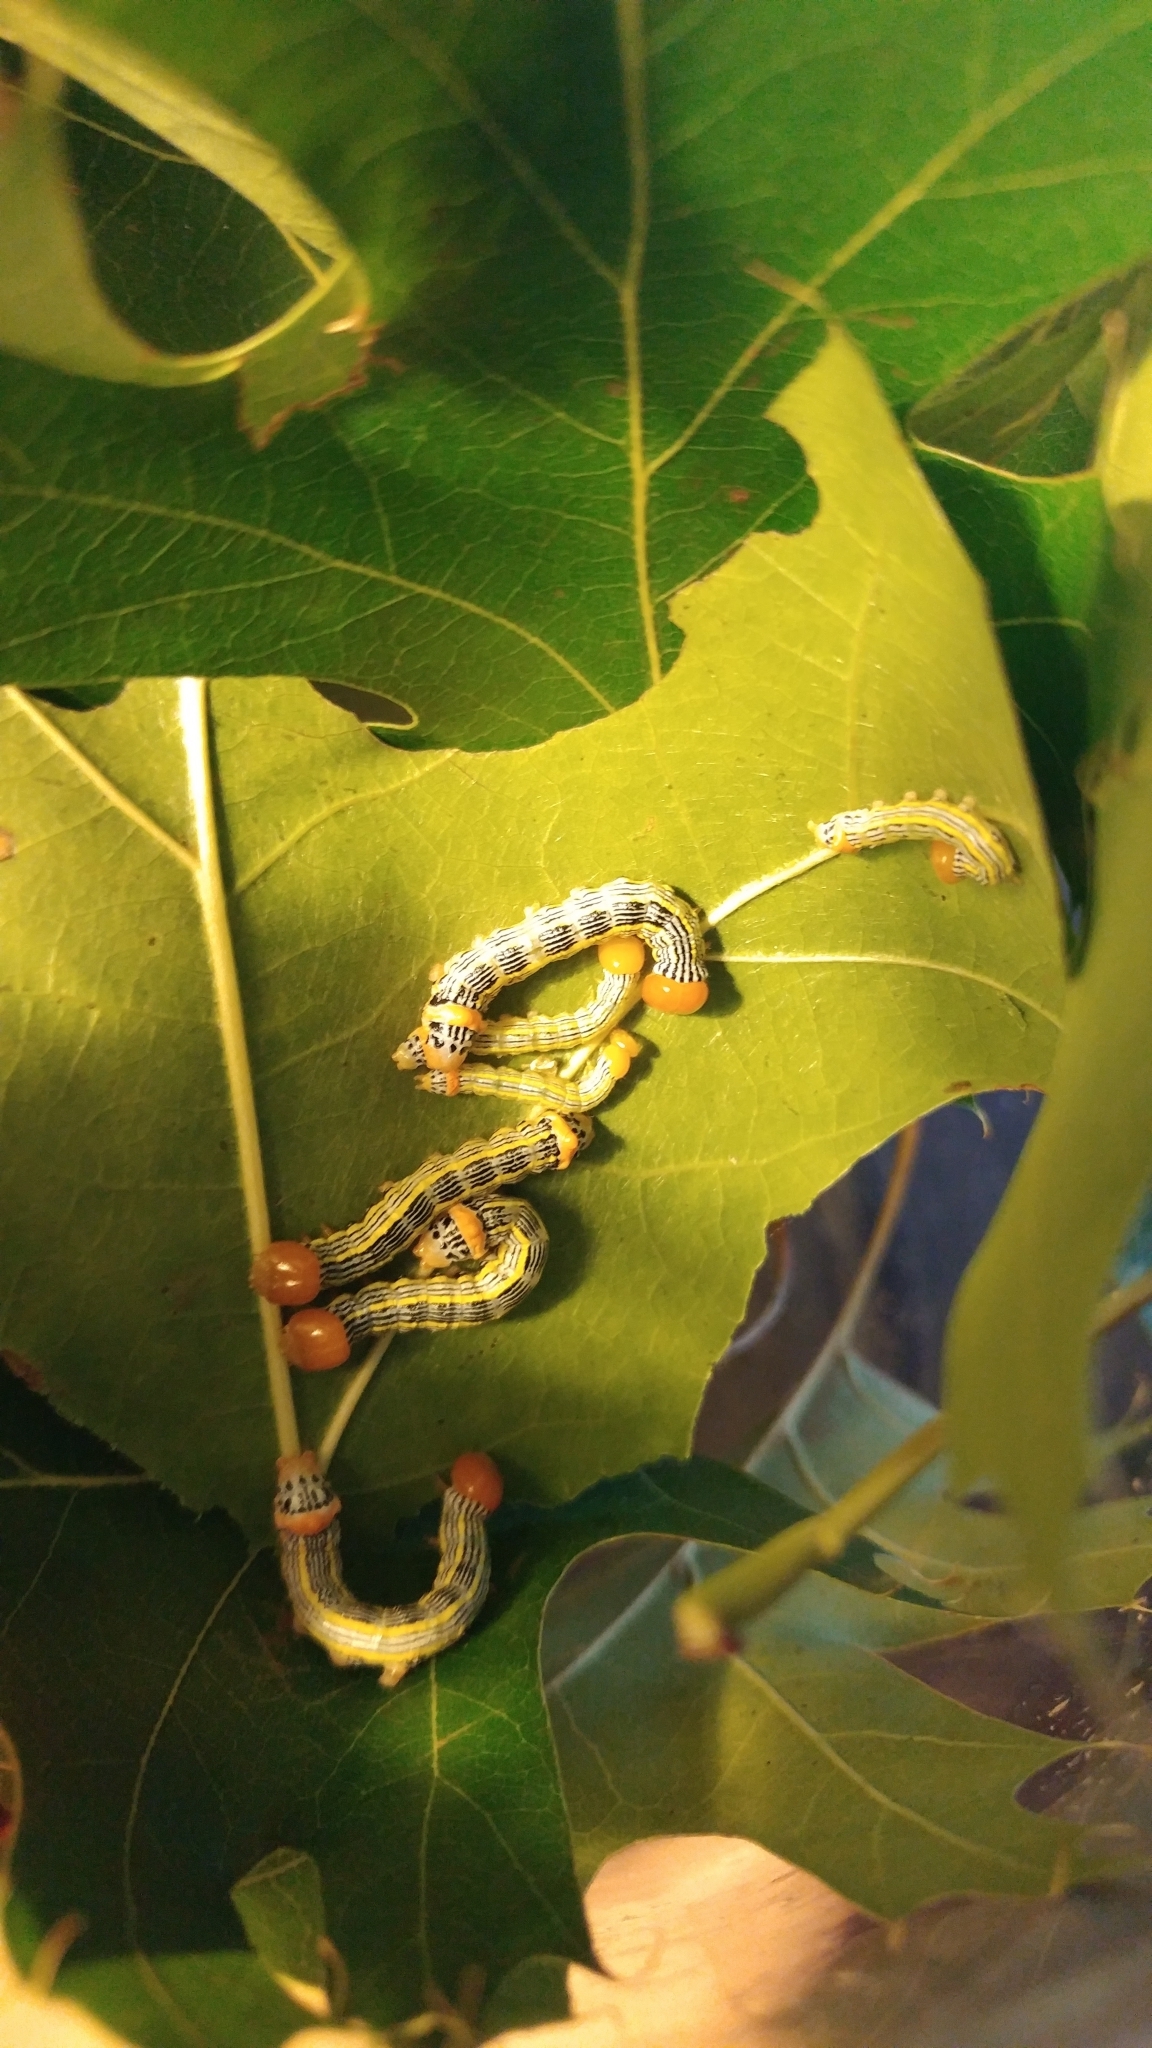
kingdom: Animalia
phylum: Arthropoda
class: Insecta
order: Lepidoptera
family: Notodontidae
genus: Symmerista
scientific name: Symmerista canicosta
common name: Red-humped oakworm moth
